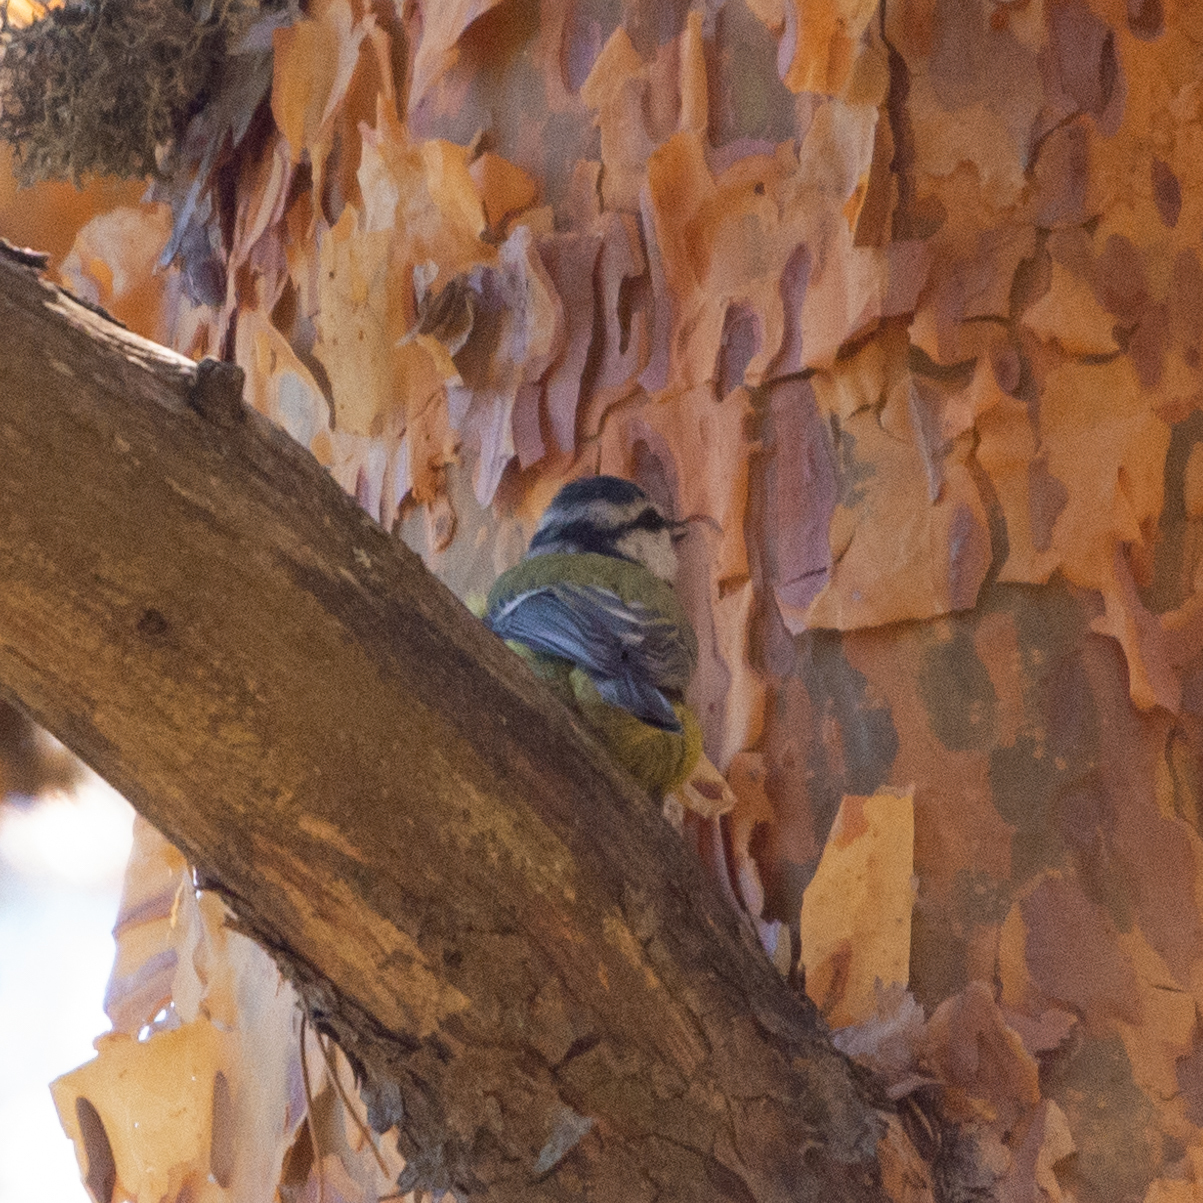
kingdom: Animalia
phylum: Chordata
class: Aves
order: Passeriformes
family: Paridae
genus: Cyanistes
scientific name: Cyanistes caeruleus
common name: Eurasian blue tit
